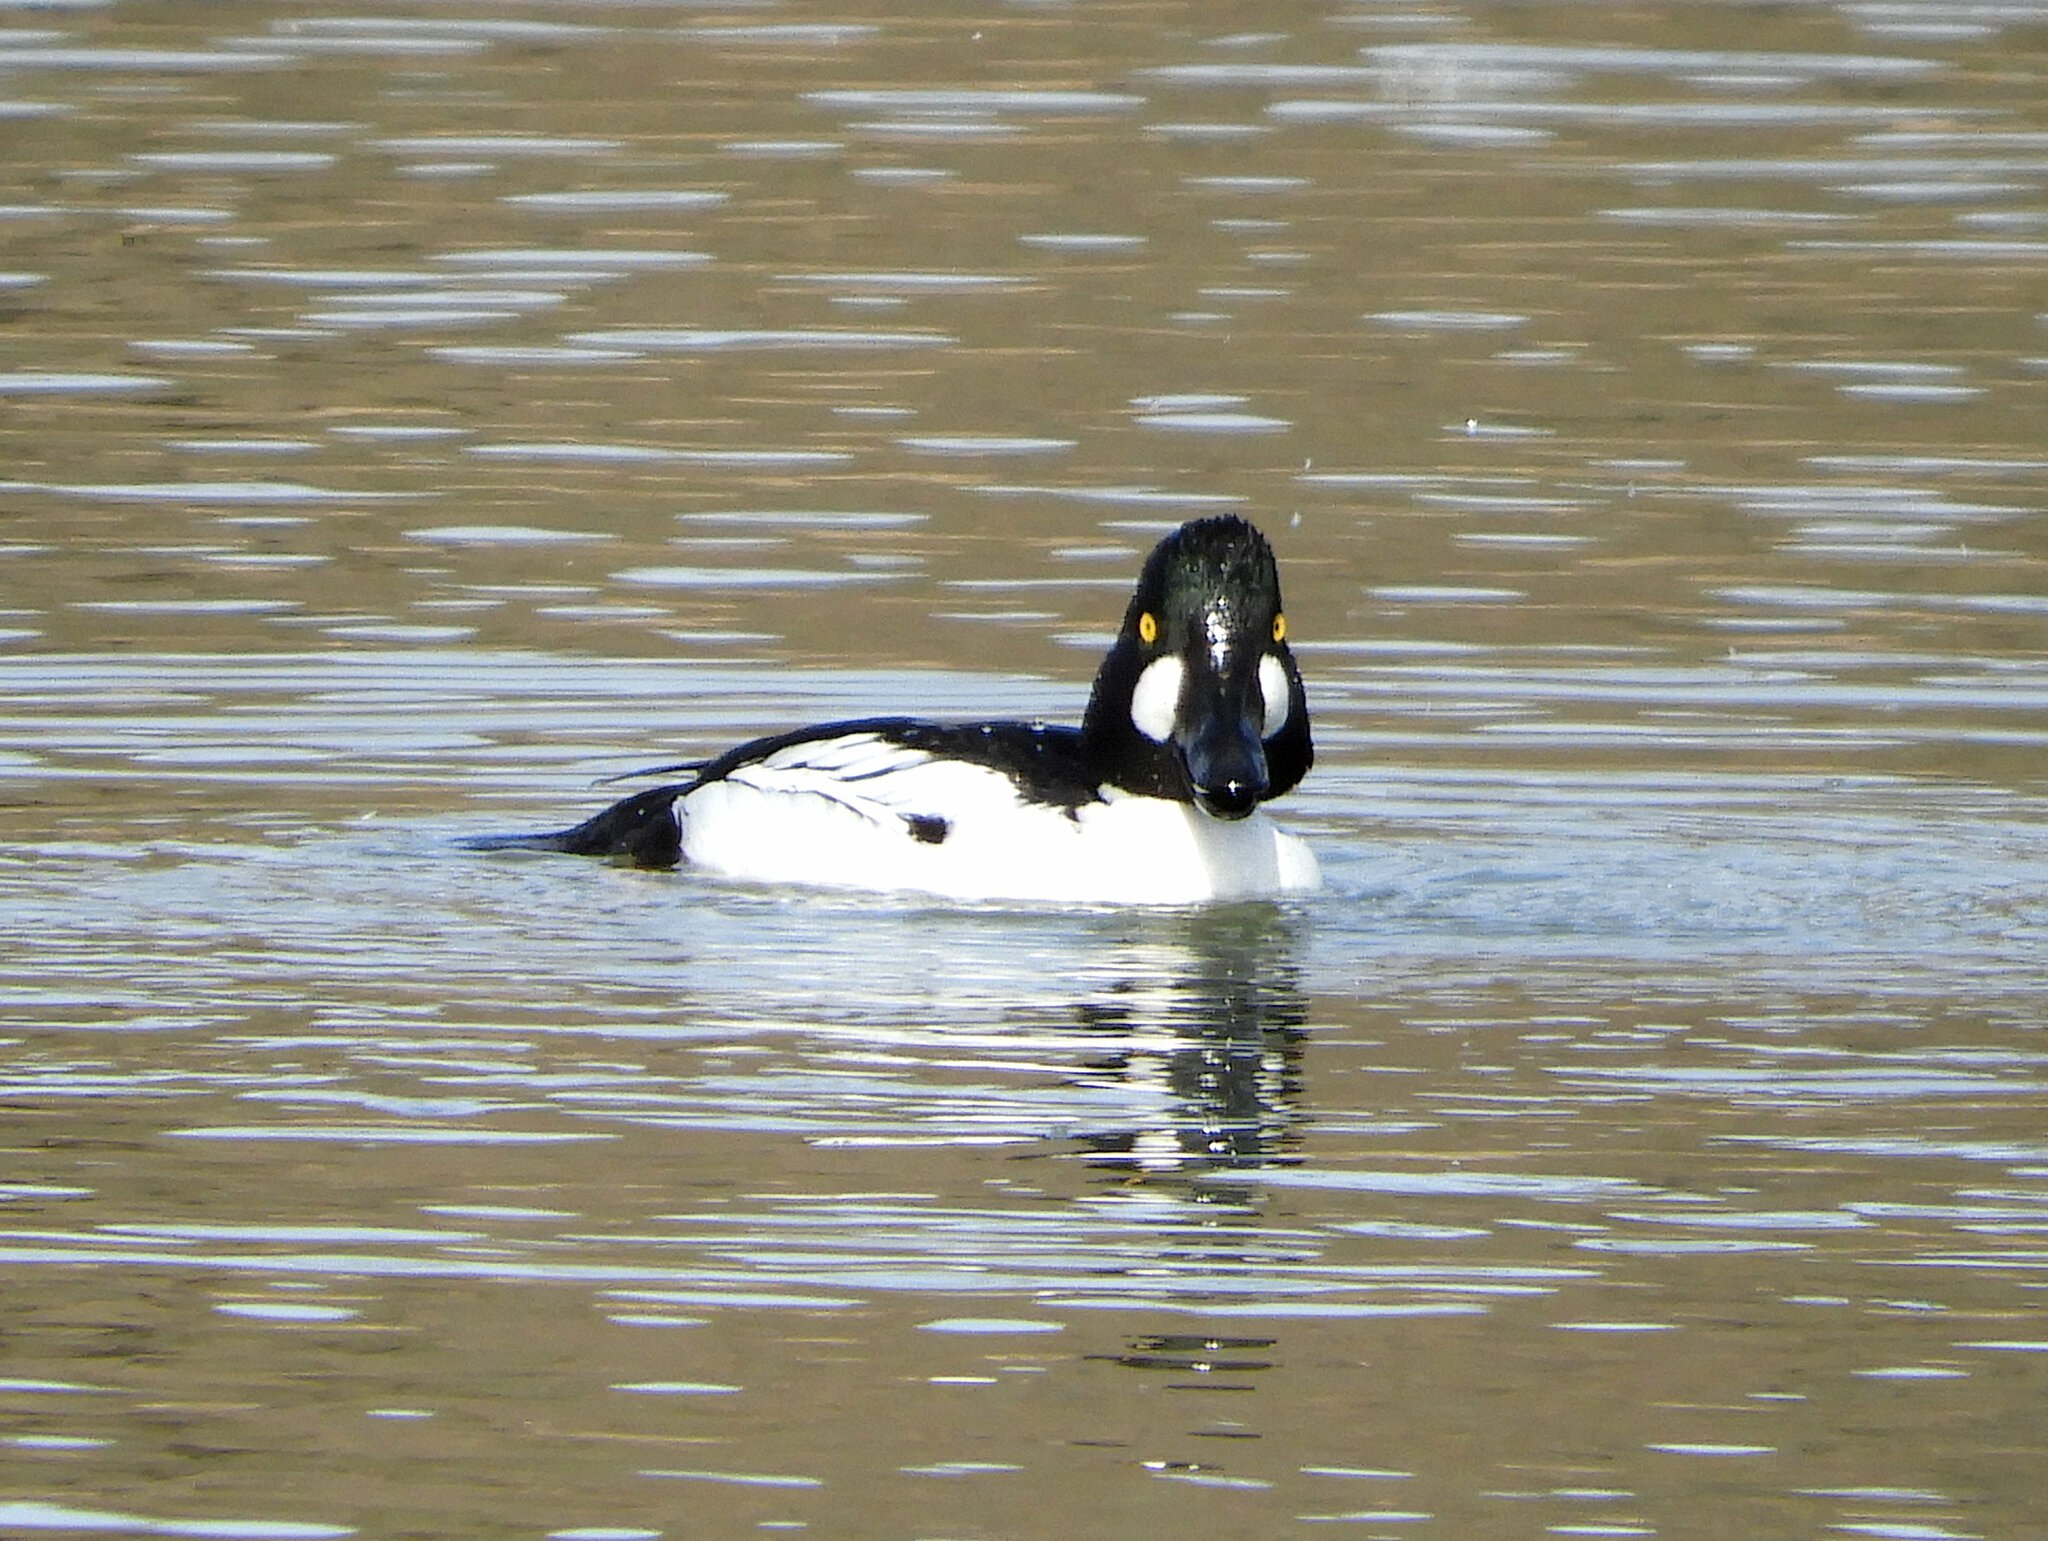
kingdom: Animalia
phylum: Chordata
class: Aves
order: Anseriformes
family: Anatidae
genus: Bucephala
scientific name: Bucephala clangula
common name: Common goldeneye
